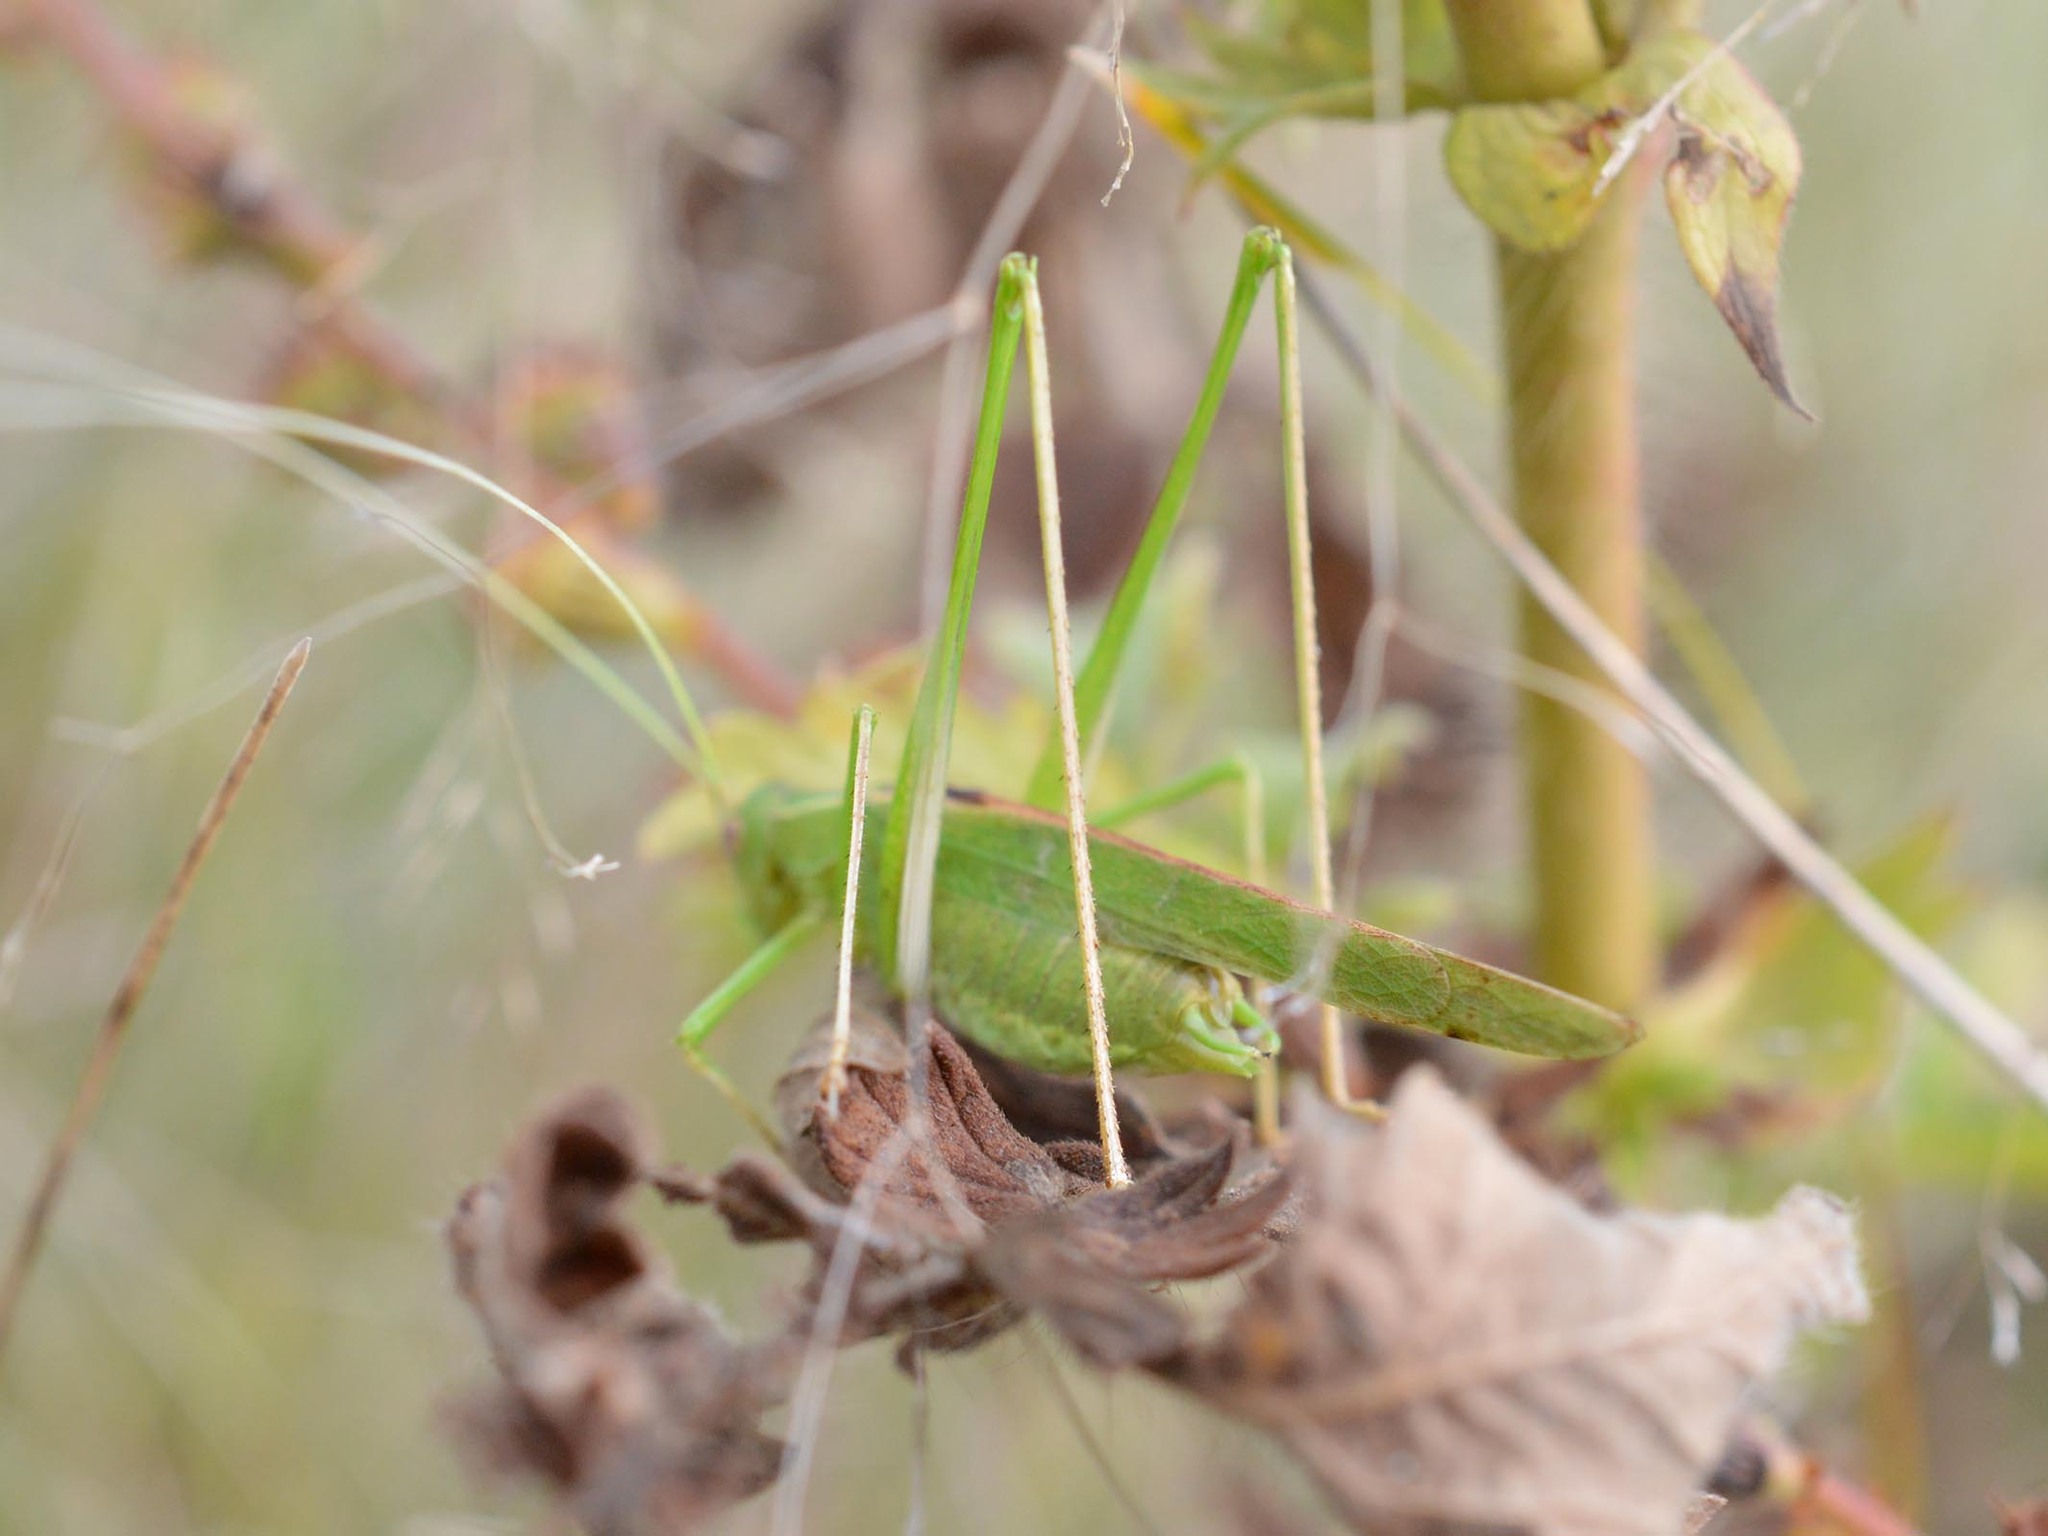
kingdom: Animalia
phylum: Arthropoda
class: Insecta
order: Orthoptera
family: Tettigoniidae
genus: Tylopsis
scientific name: Tylopsis lilifolia
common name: Lily bush-cricket
